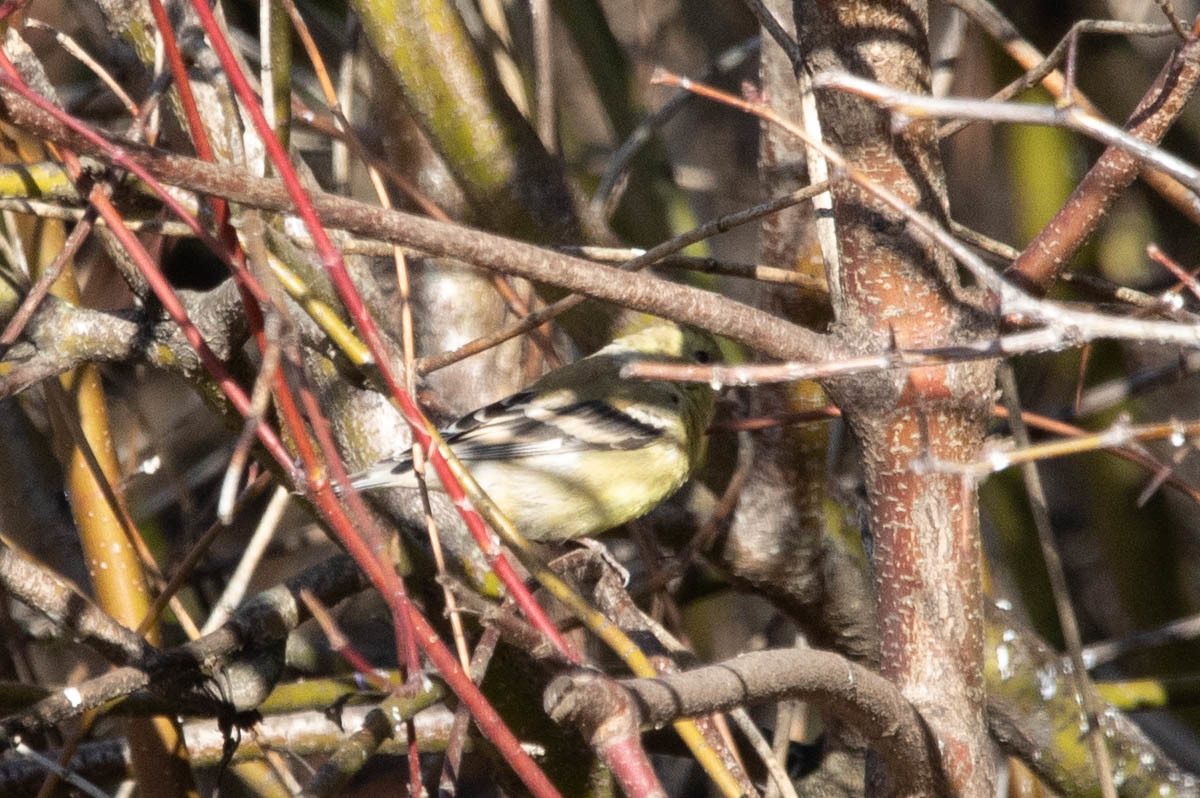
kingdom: Animalia
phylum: Chordata
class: Aves
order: Passeriformes
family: Fringillidae
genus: Spinus
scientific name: Spinus tristis
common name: American goldfinch
